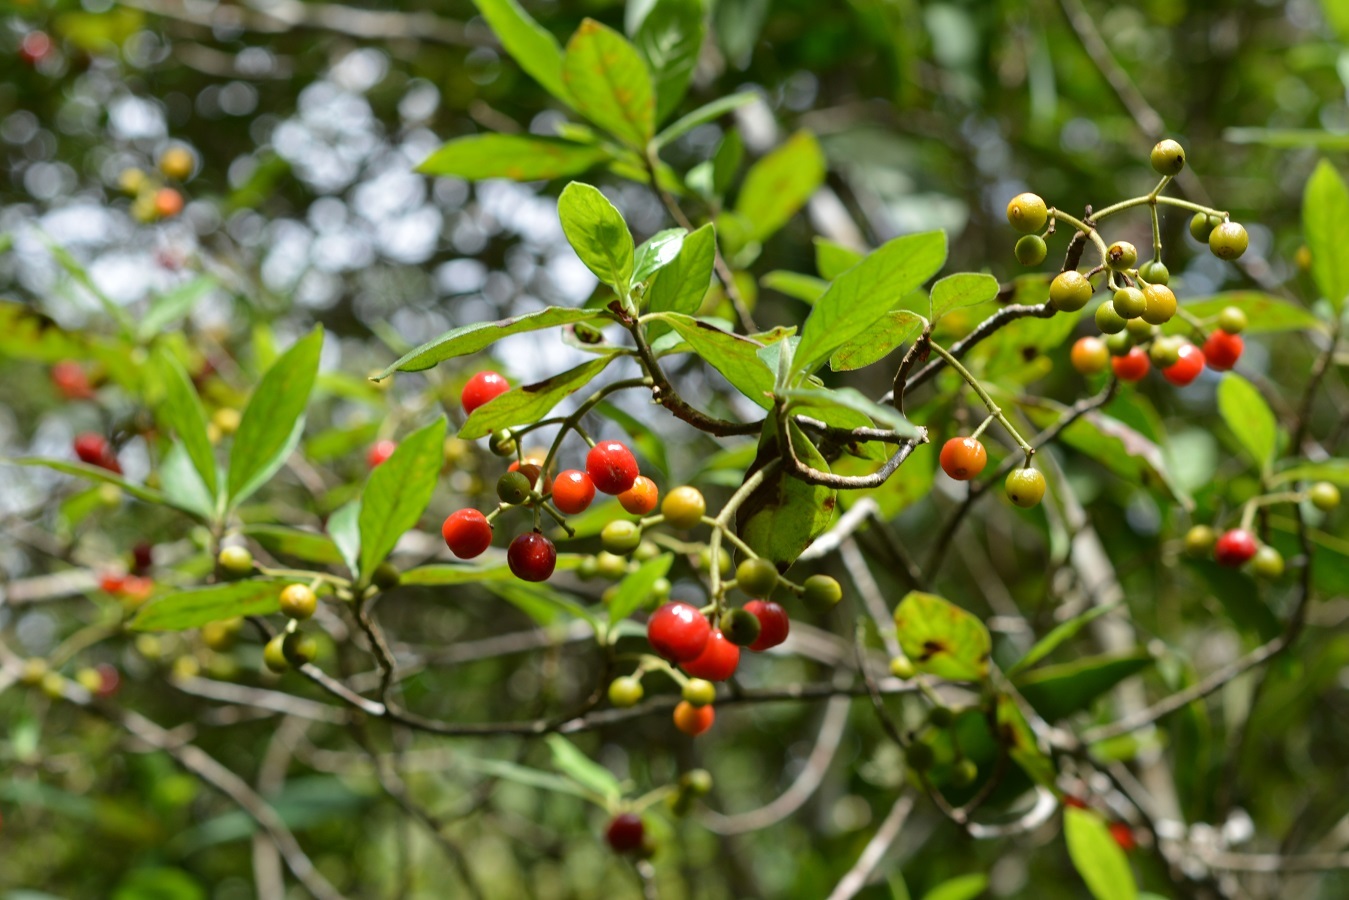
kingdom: Plantae
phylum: Tracheophyta
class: Magnoliopsida
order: Gentianales
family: Rubiaceae
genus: Psychotria
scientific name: Psychotria erythrocarpa
